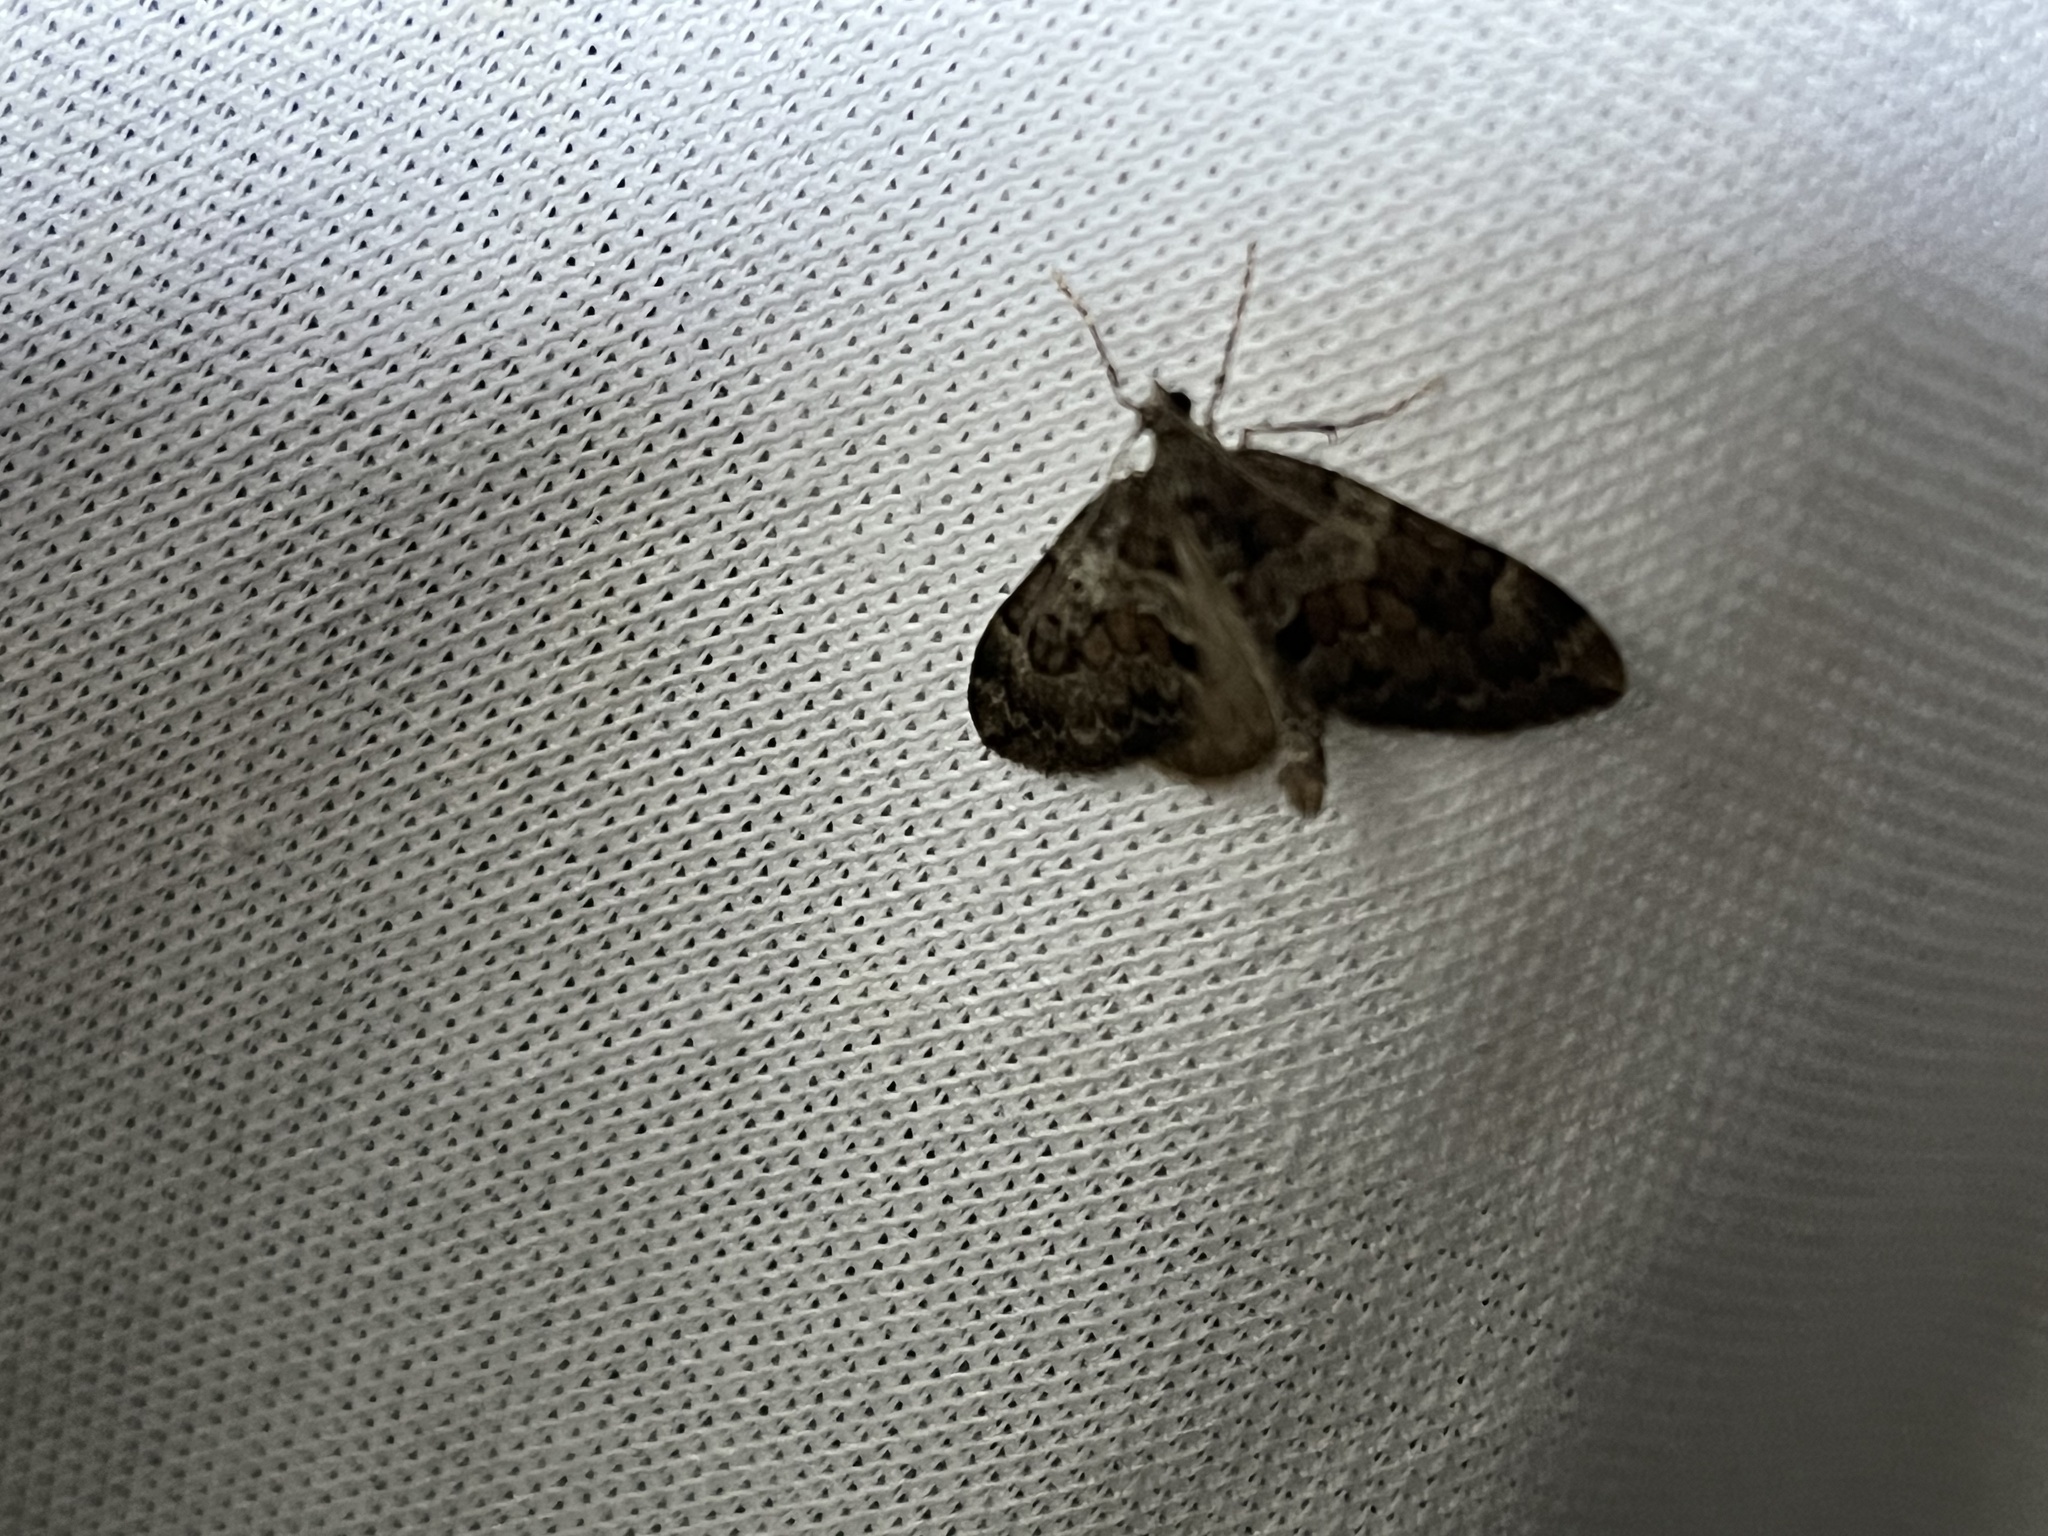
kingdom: Animalia
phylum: Arthropoda
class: Insecta
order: Lepidoptera
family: Geometridae
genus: Thera
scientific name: Thera britannica
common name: Spruce carpet
